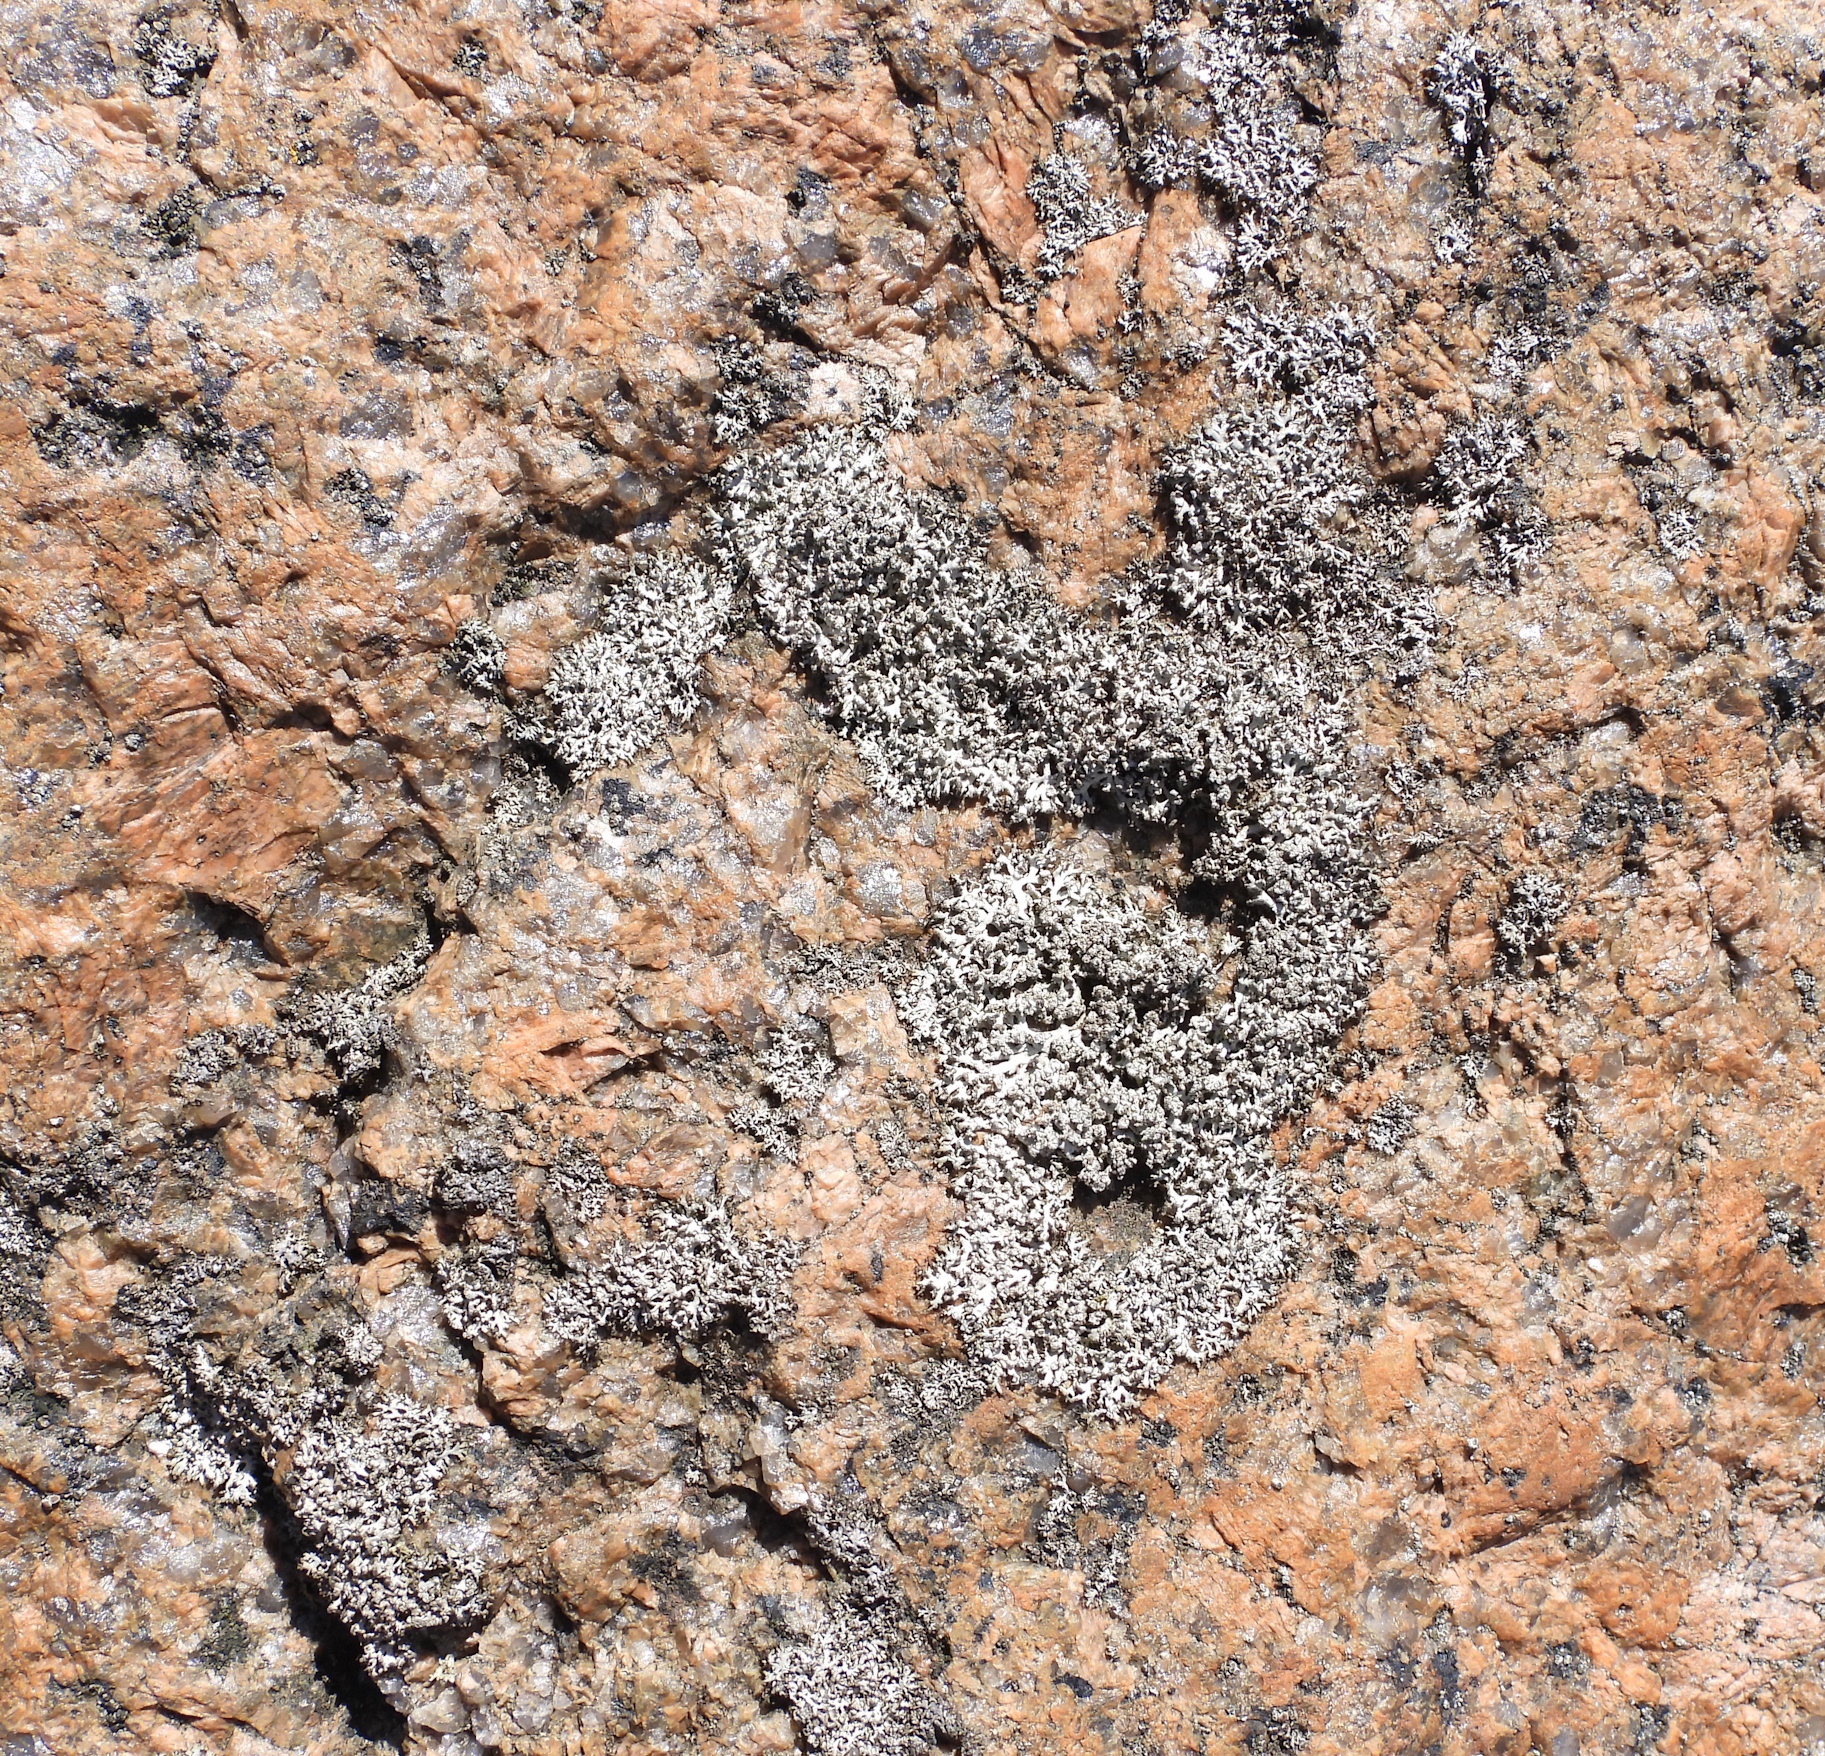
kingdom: Fungi
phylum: Ascomycota
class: Lecanoromycetes
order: Caliciales
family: Physciaceae
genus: Physcia
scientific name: Physcia tenella
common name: Fringed rosette lichen
